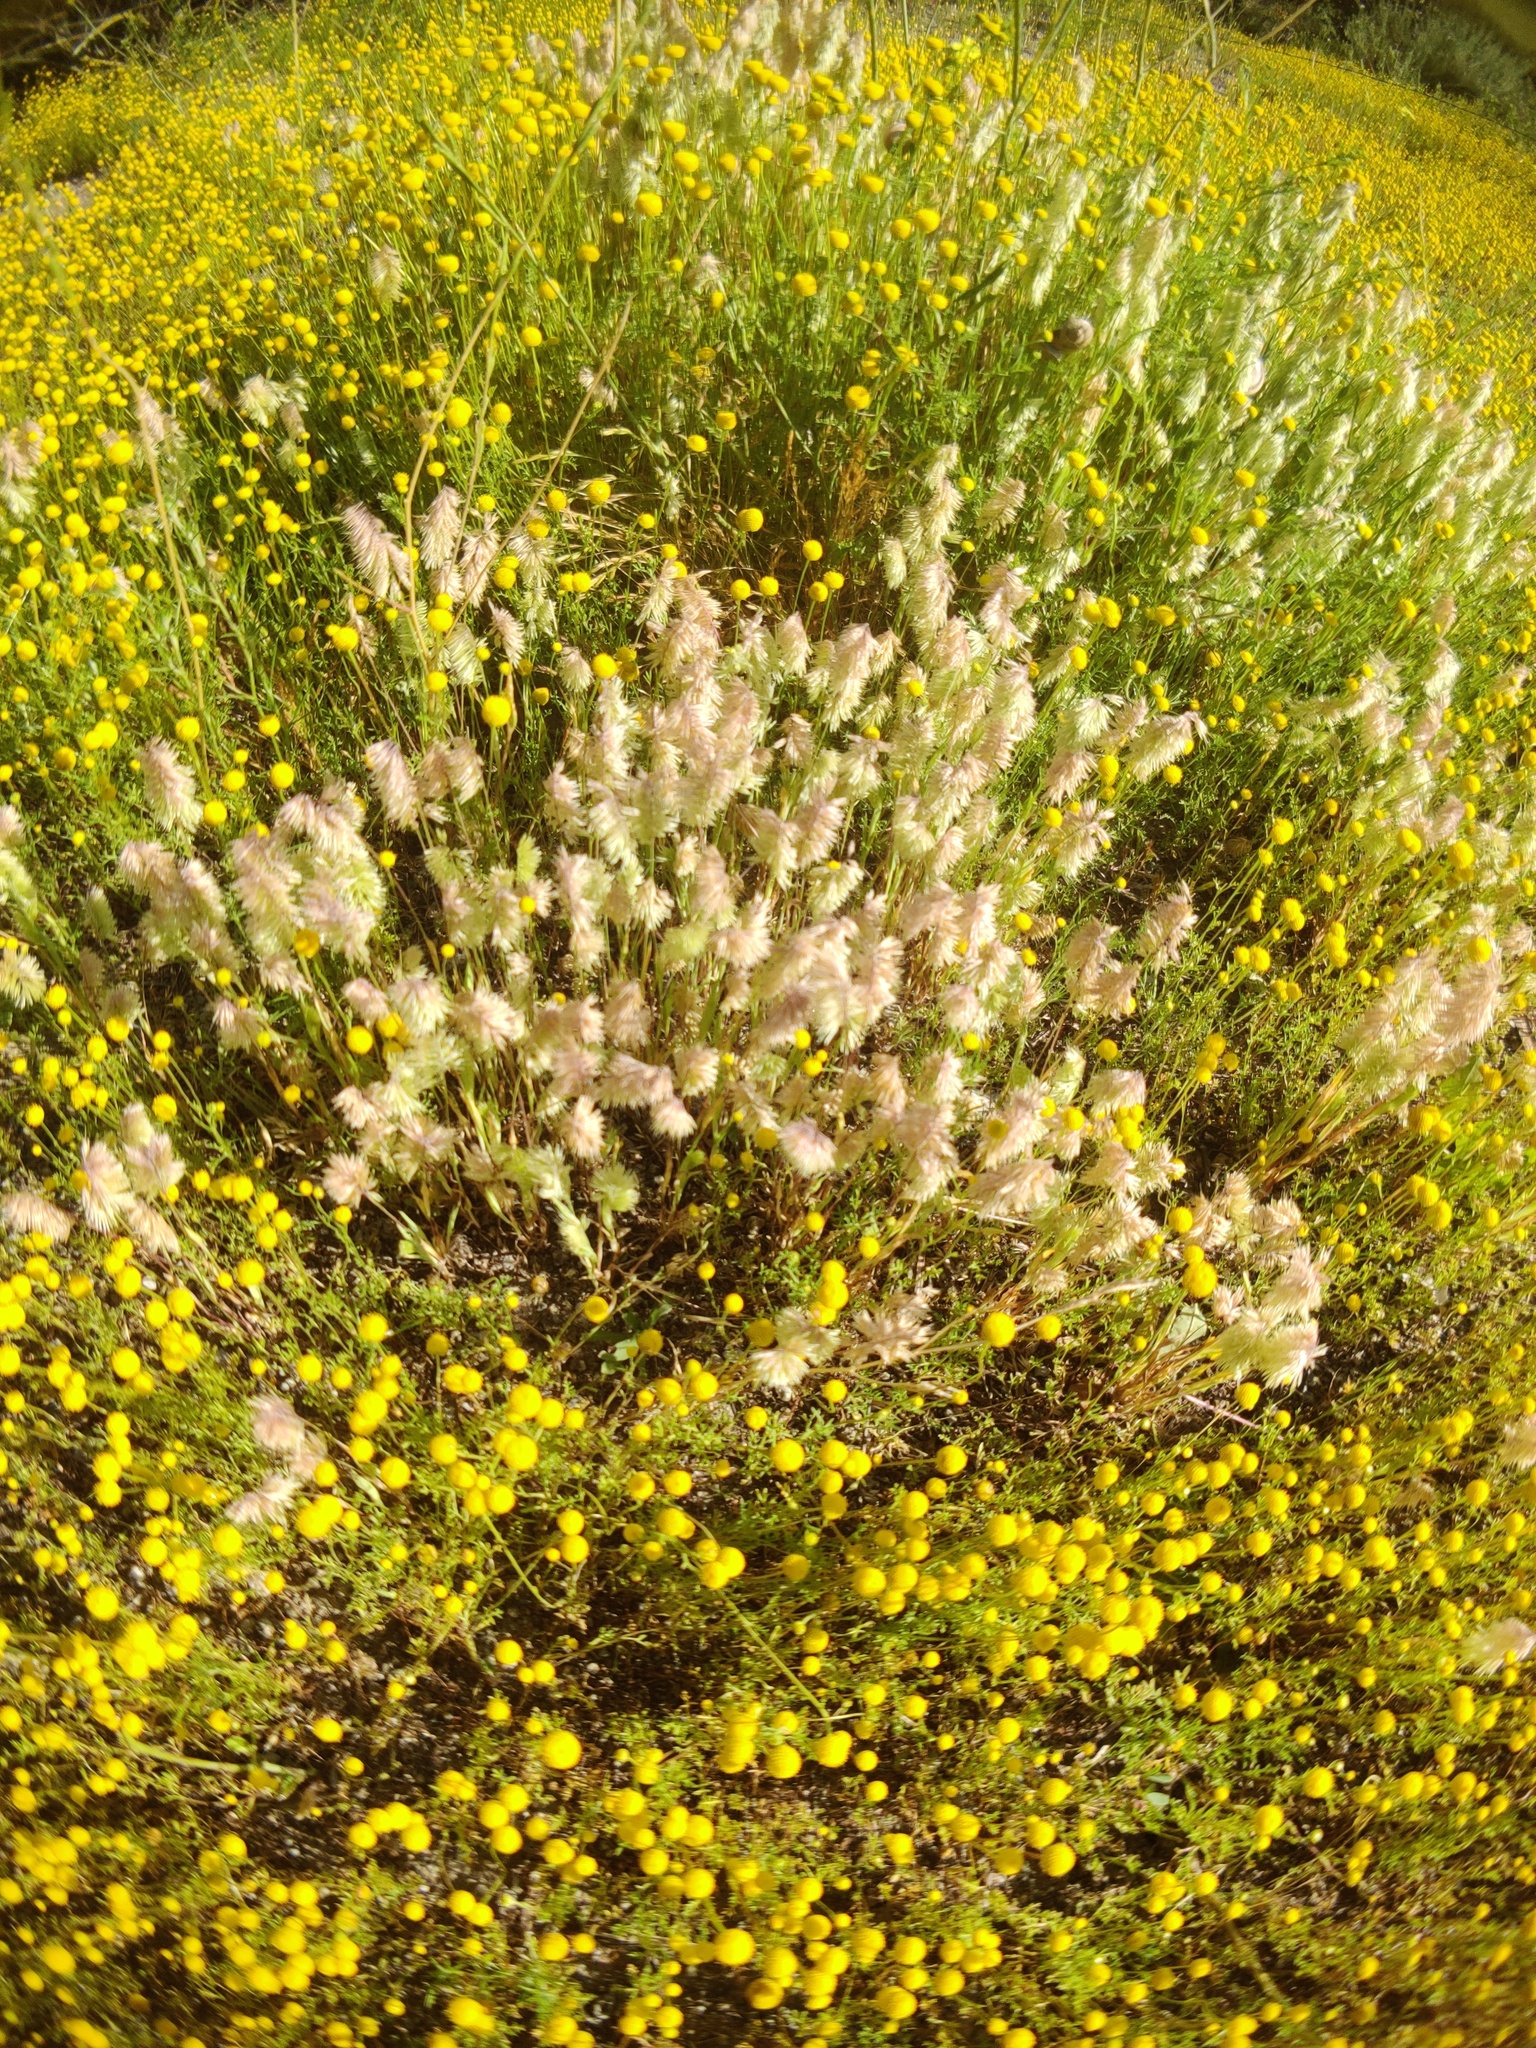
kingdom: Plantae
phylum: Tracheophyta
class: Liliopsida
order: Poales
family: Poaceae
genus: Lamarckia
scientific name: Lamarckia aurea
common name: Golden dog's-tail
